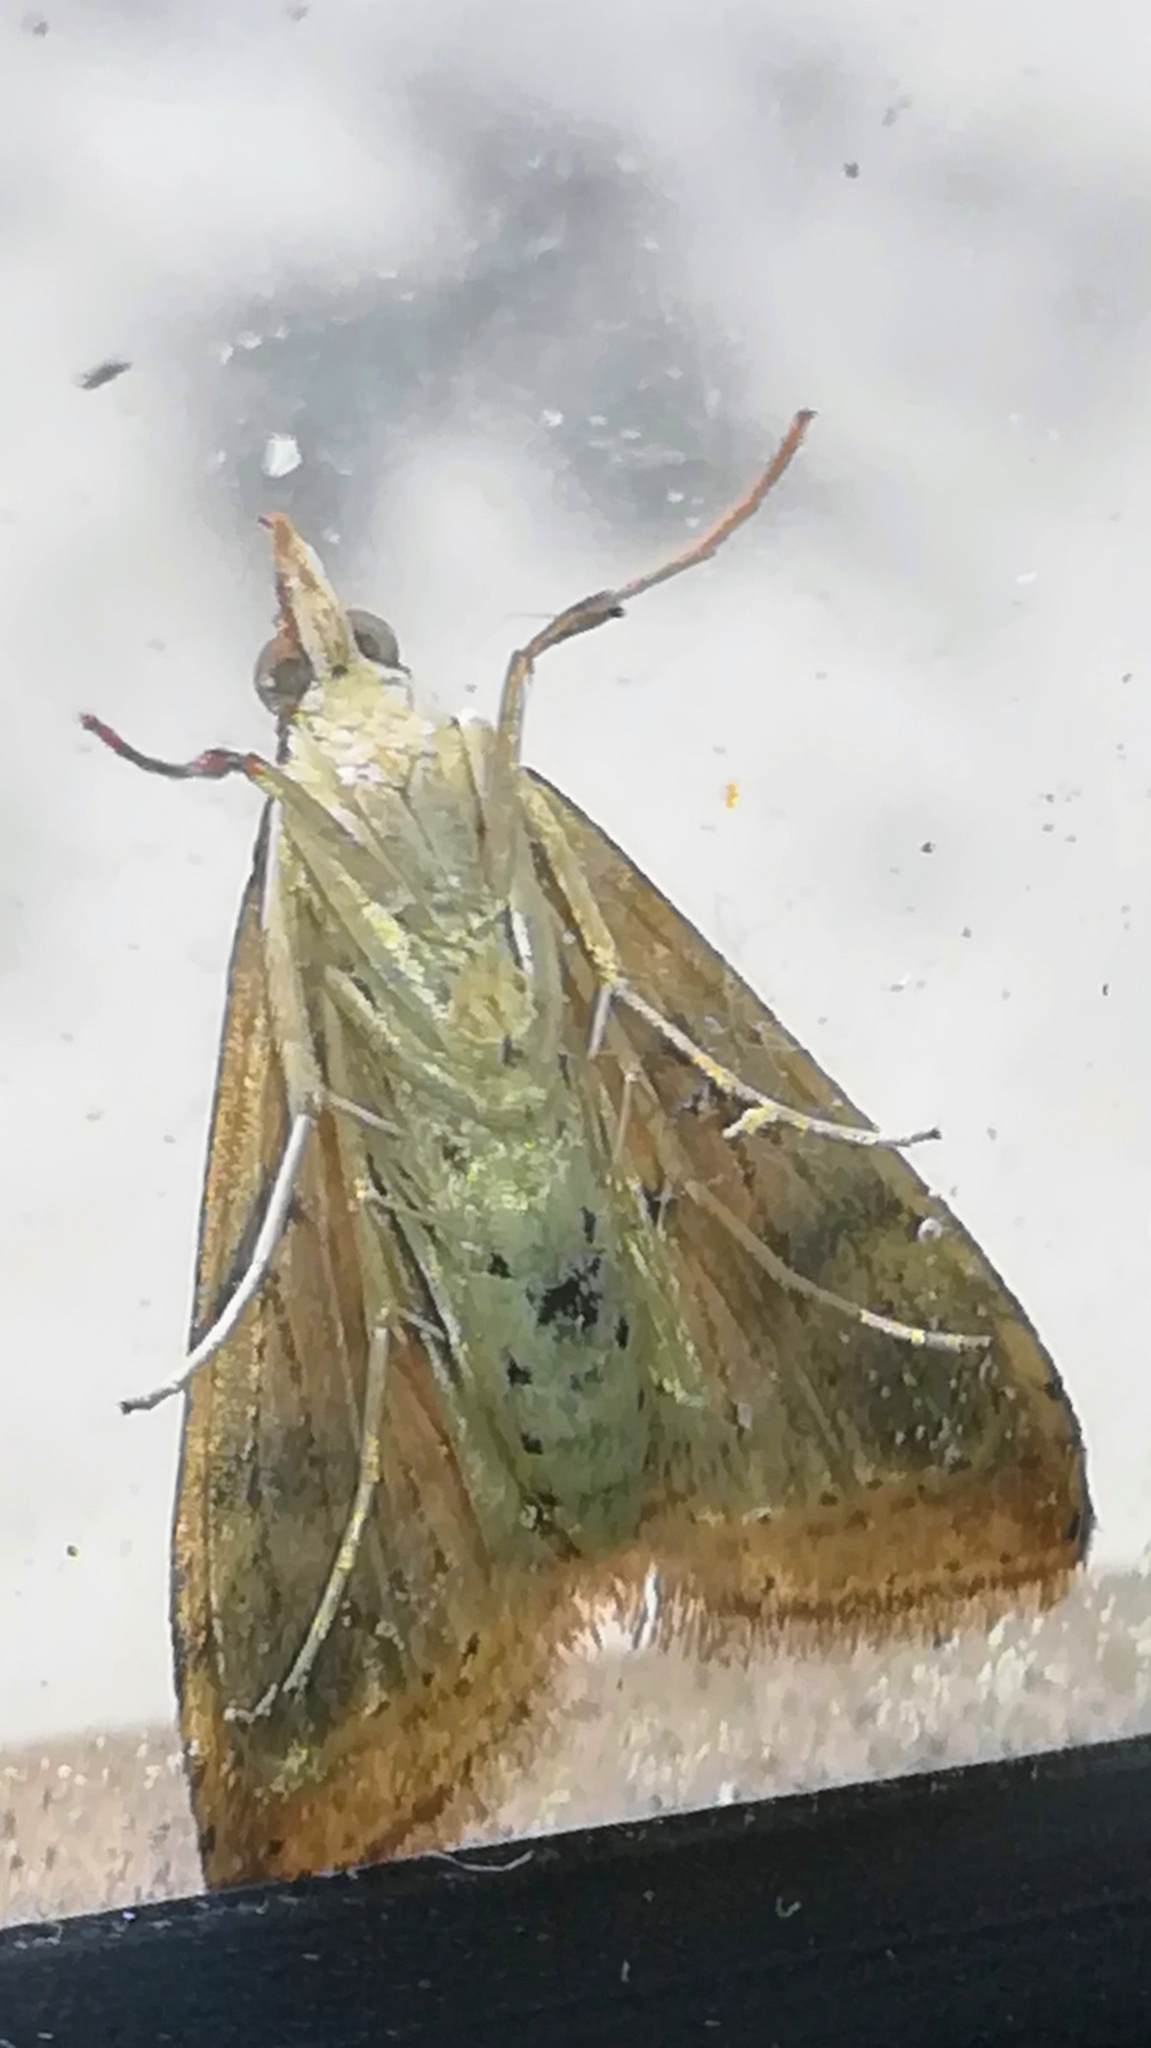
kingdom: Animalia
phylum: Arthropoda
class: Insecta
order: Lepidoptera
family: Crambidae
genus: Udea
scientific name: Udea ferrugalis
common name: Rusty dot
